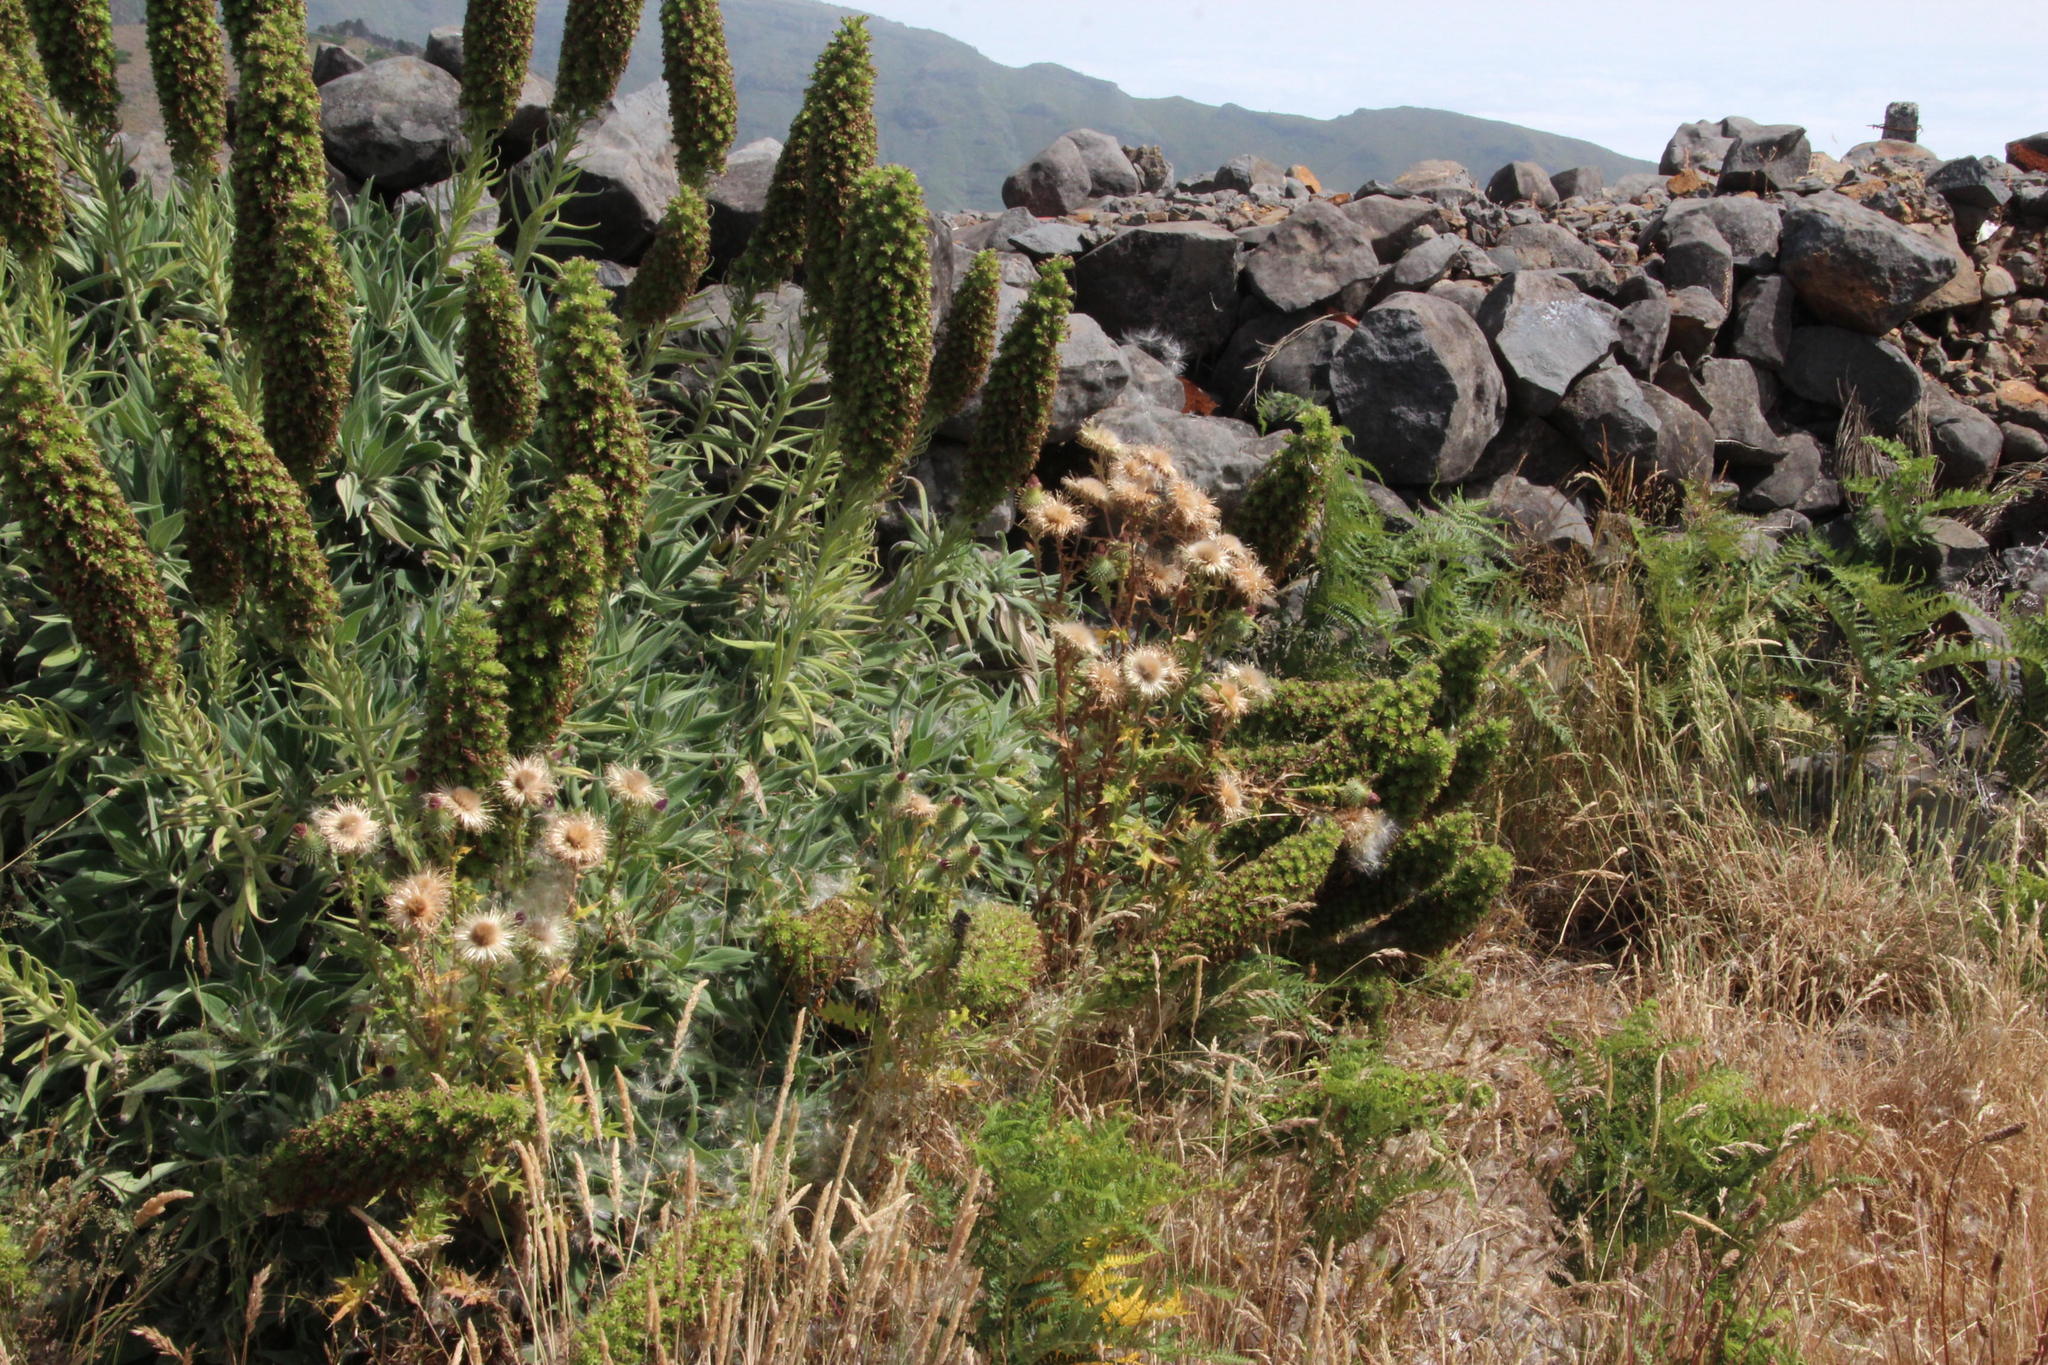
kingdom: Plantae
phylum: Tracheophyta
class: Magnoliopsida
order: Asterales
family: Asteraceae
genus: Galactites
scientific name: Galactites tomentosa
